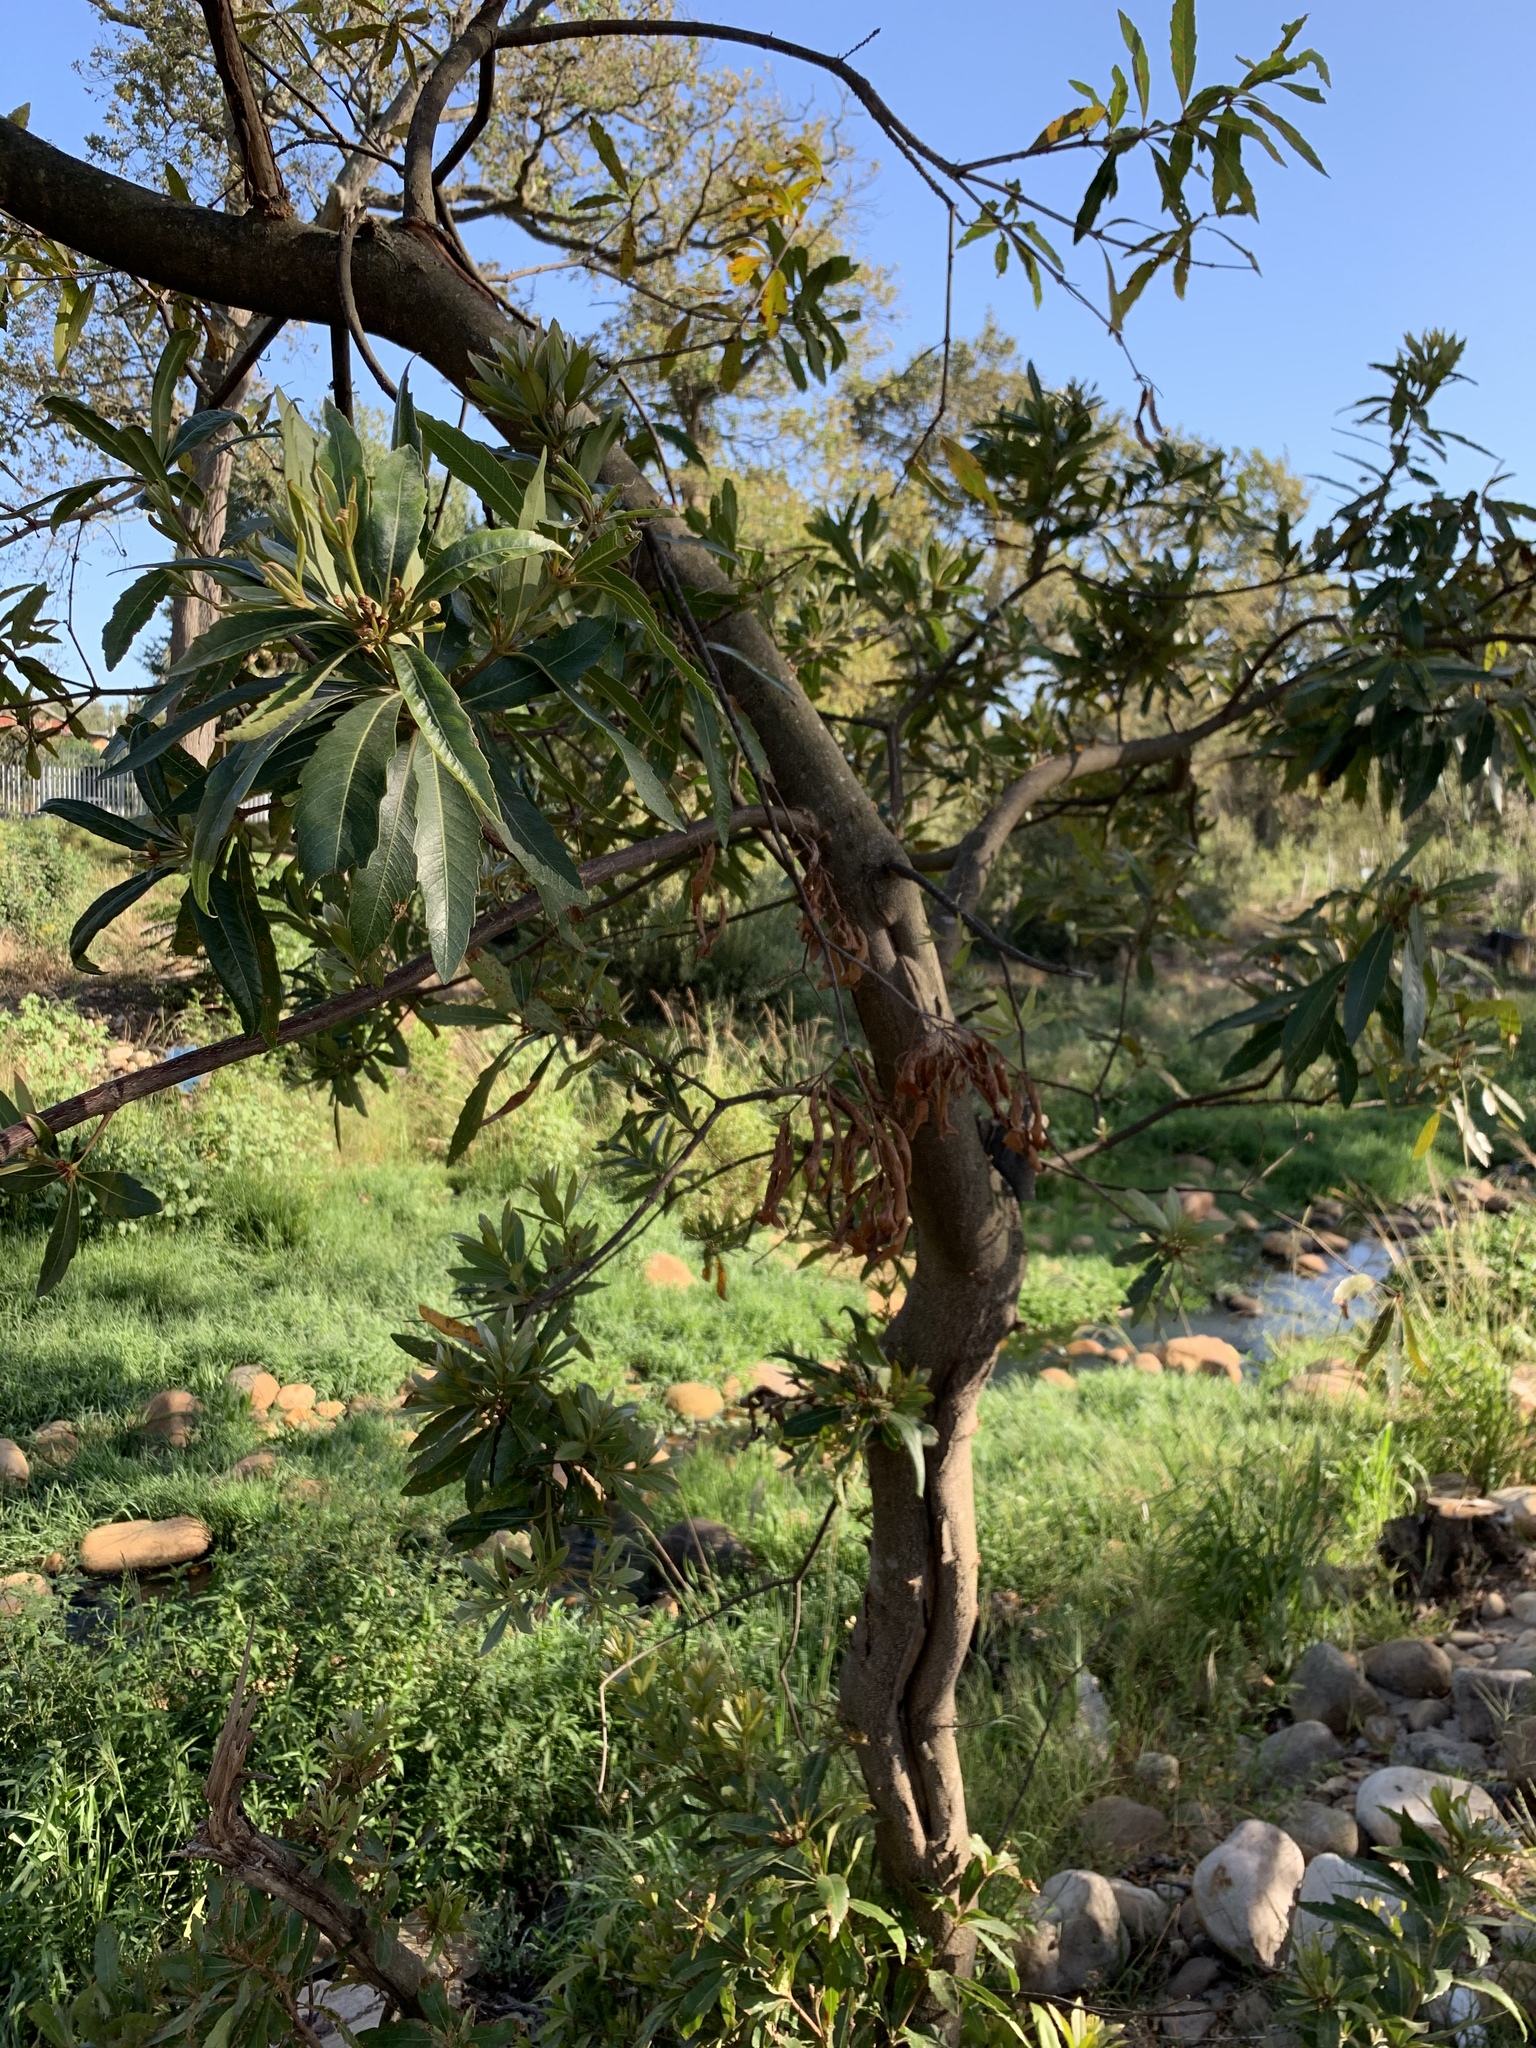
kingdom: Plantae
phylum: Tracheophyta
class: Magnoliopsida
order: Proteales
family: Proteaceae
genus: Brabejum
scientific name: Brabejum stellatifolium
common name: Wild almond
